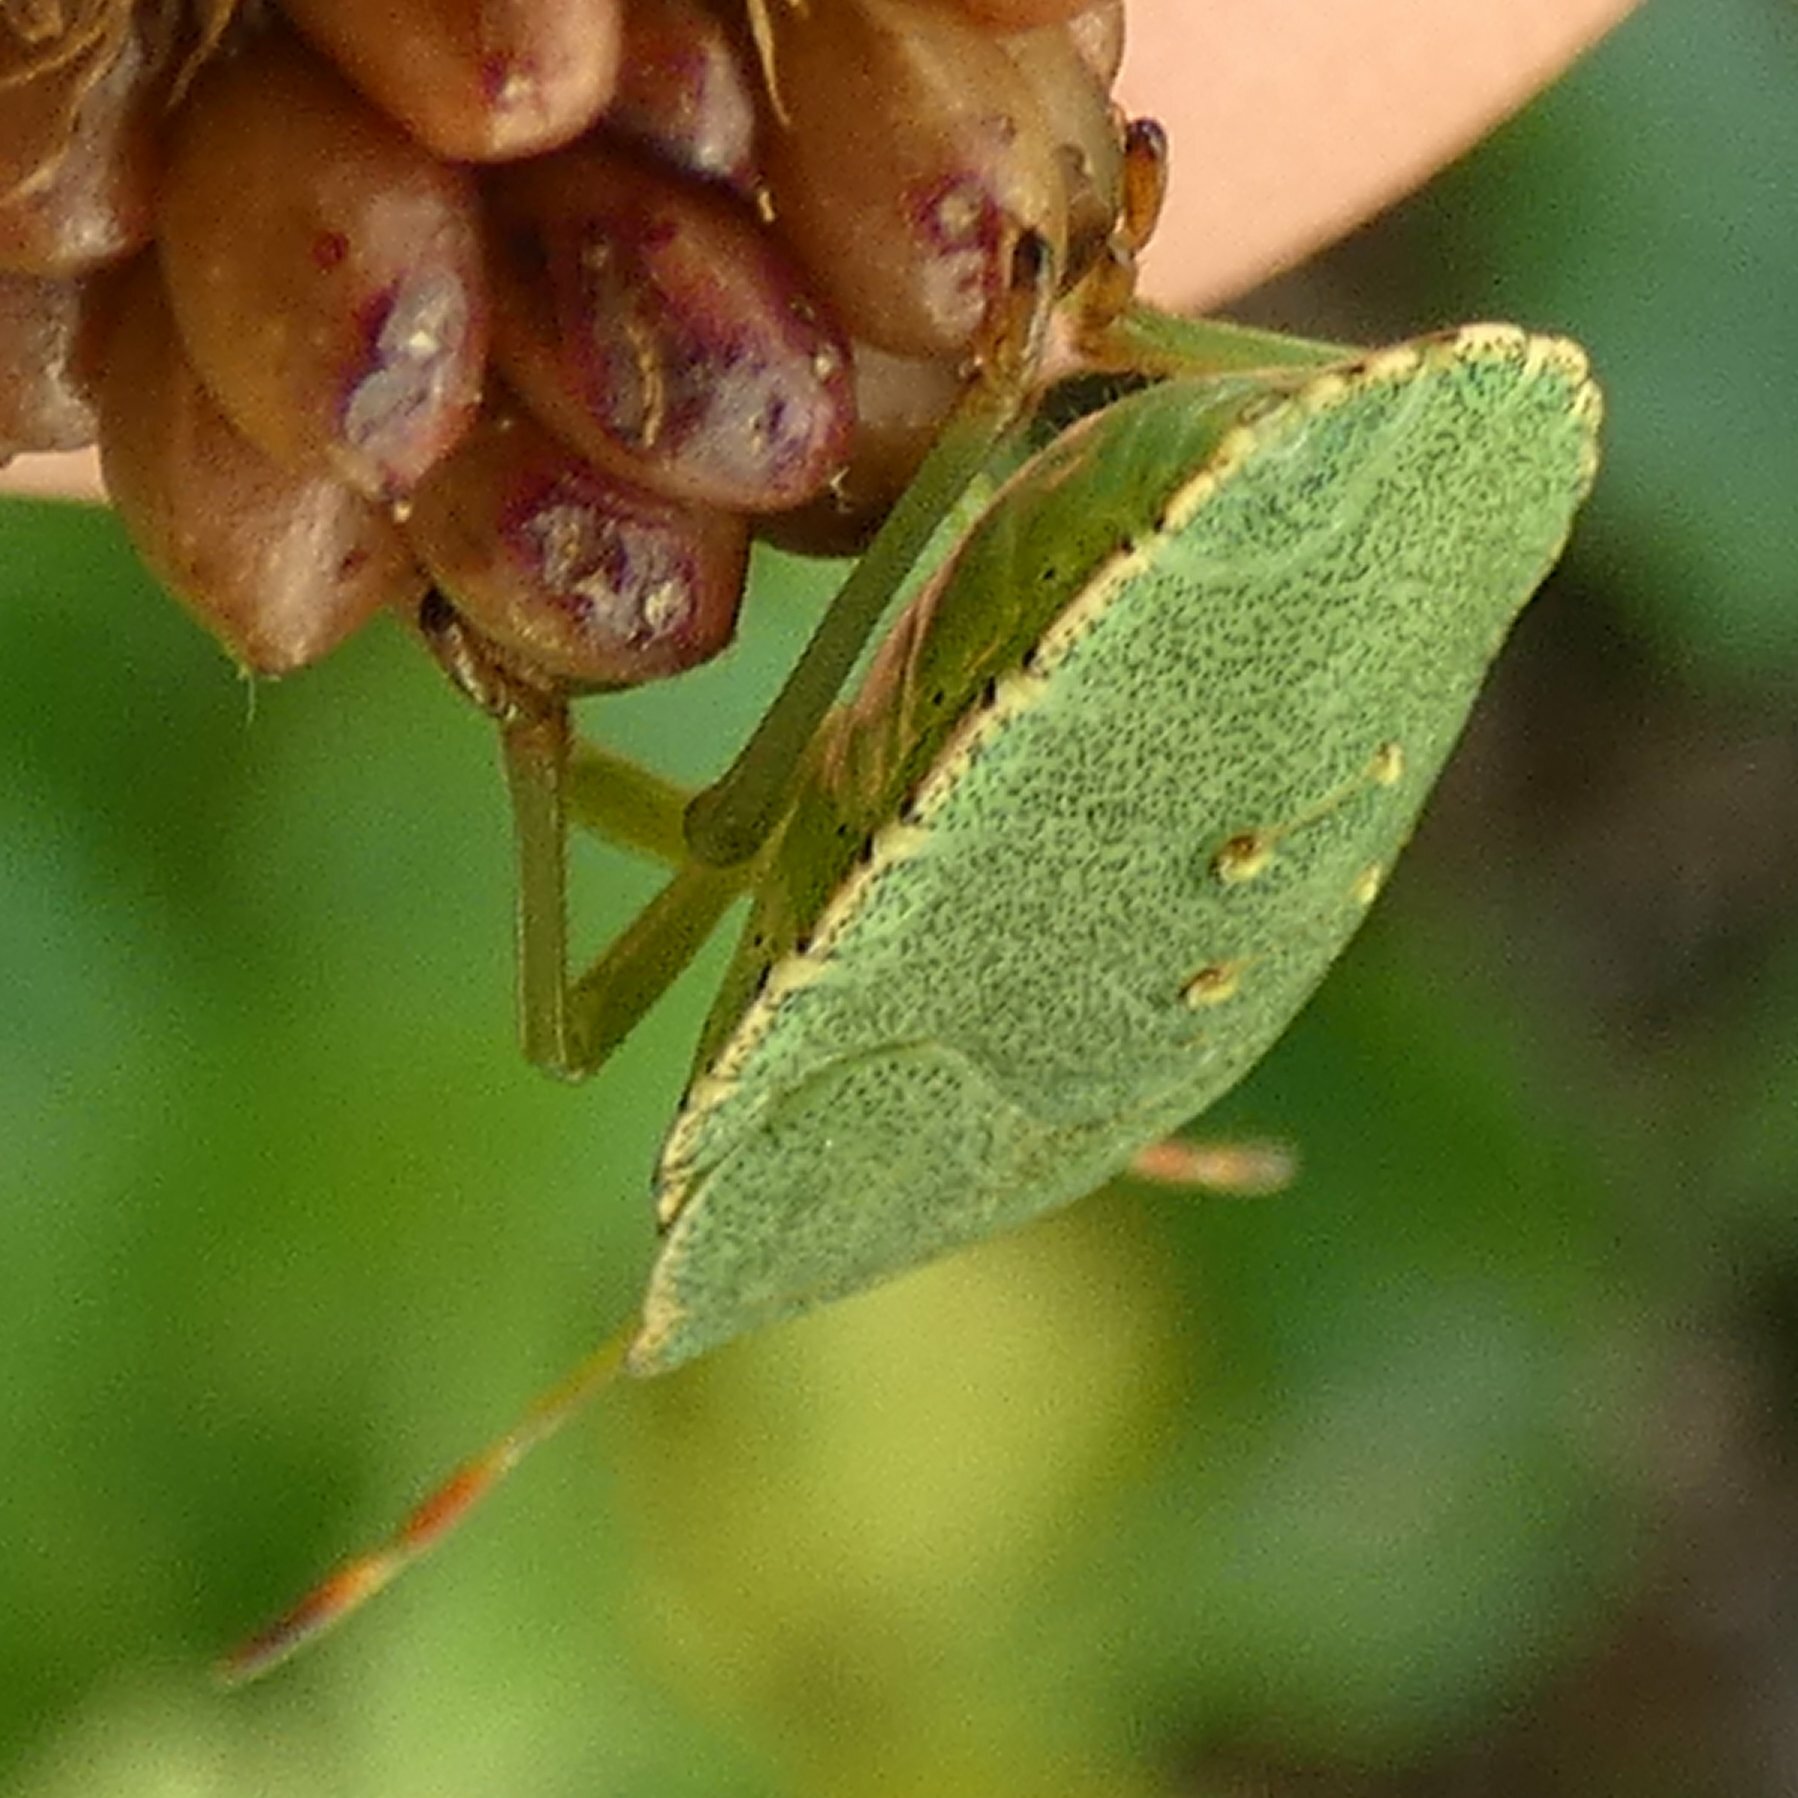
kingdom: Animalia
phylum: Arthropoda
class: Insecta
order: Hemiptera
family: Pentatomidae
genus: Palomena
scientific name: Palomena prasina
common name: Green shieldbug
